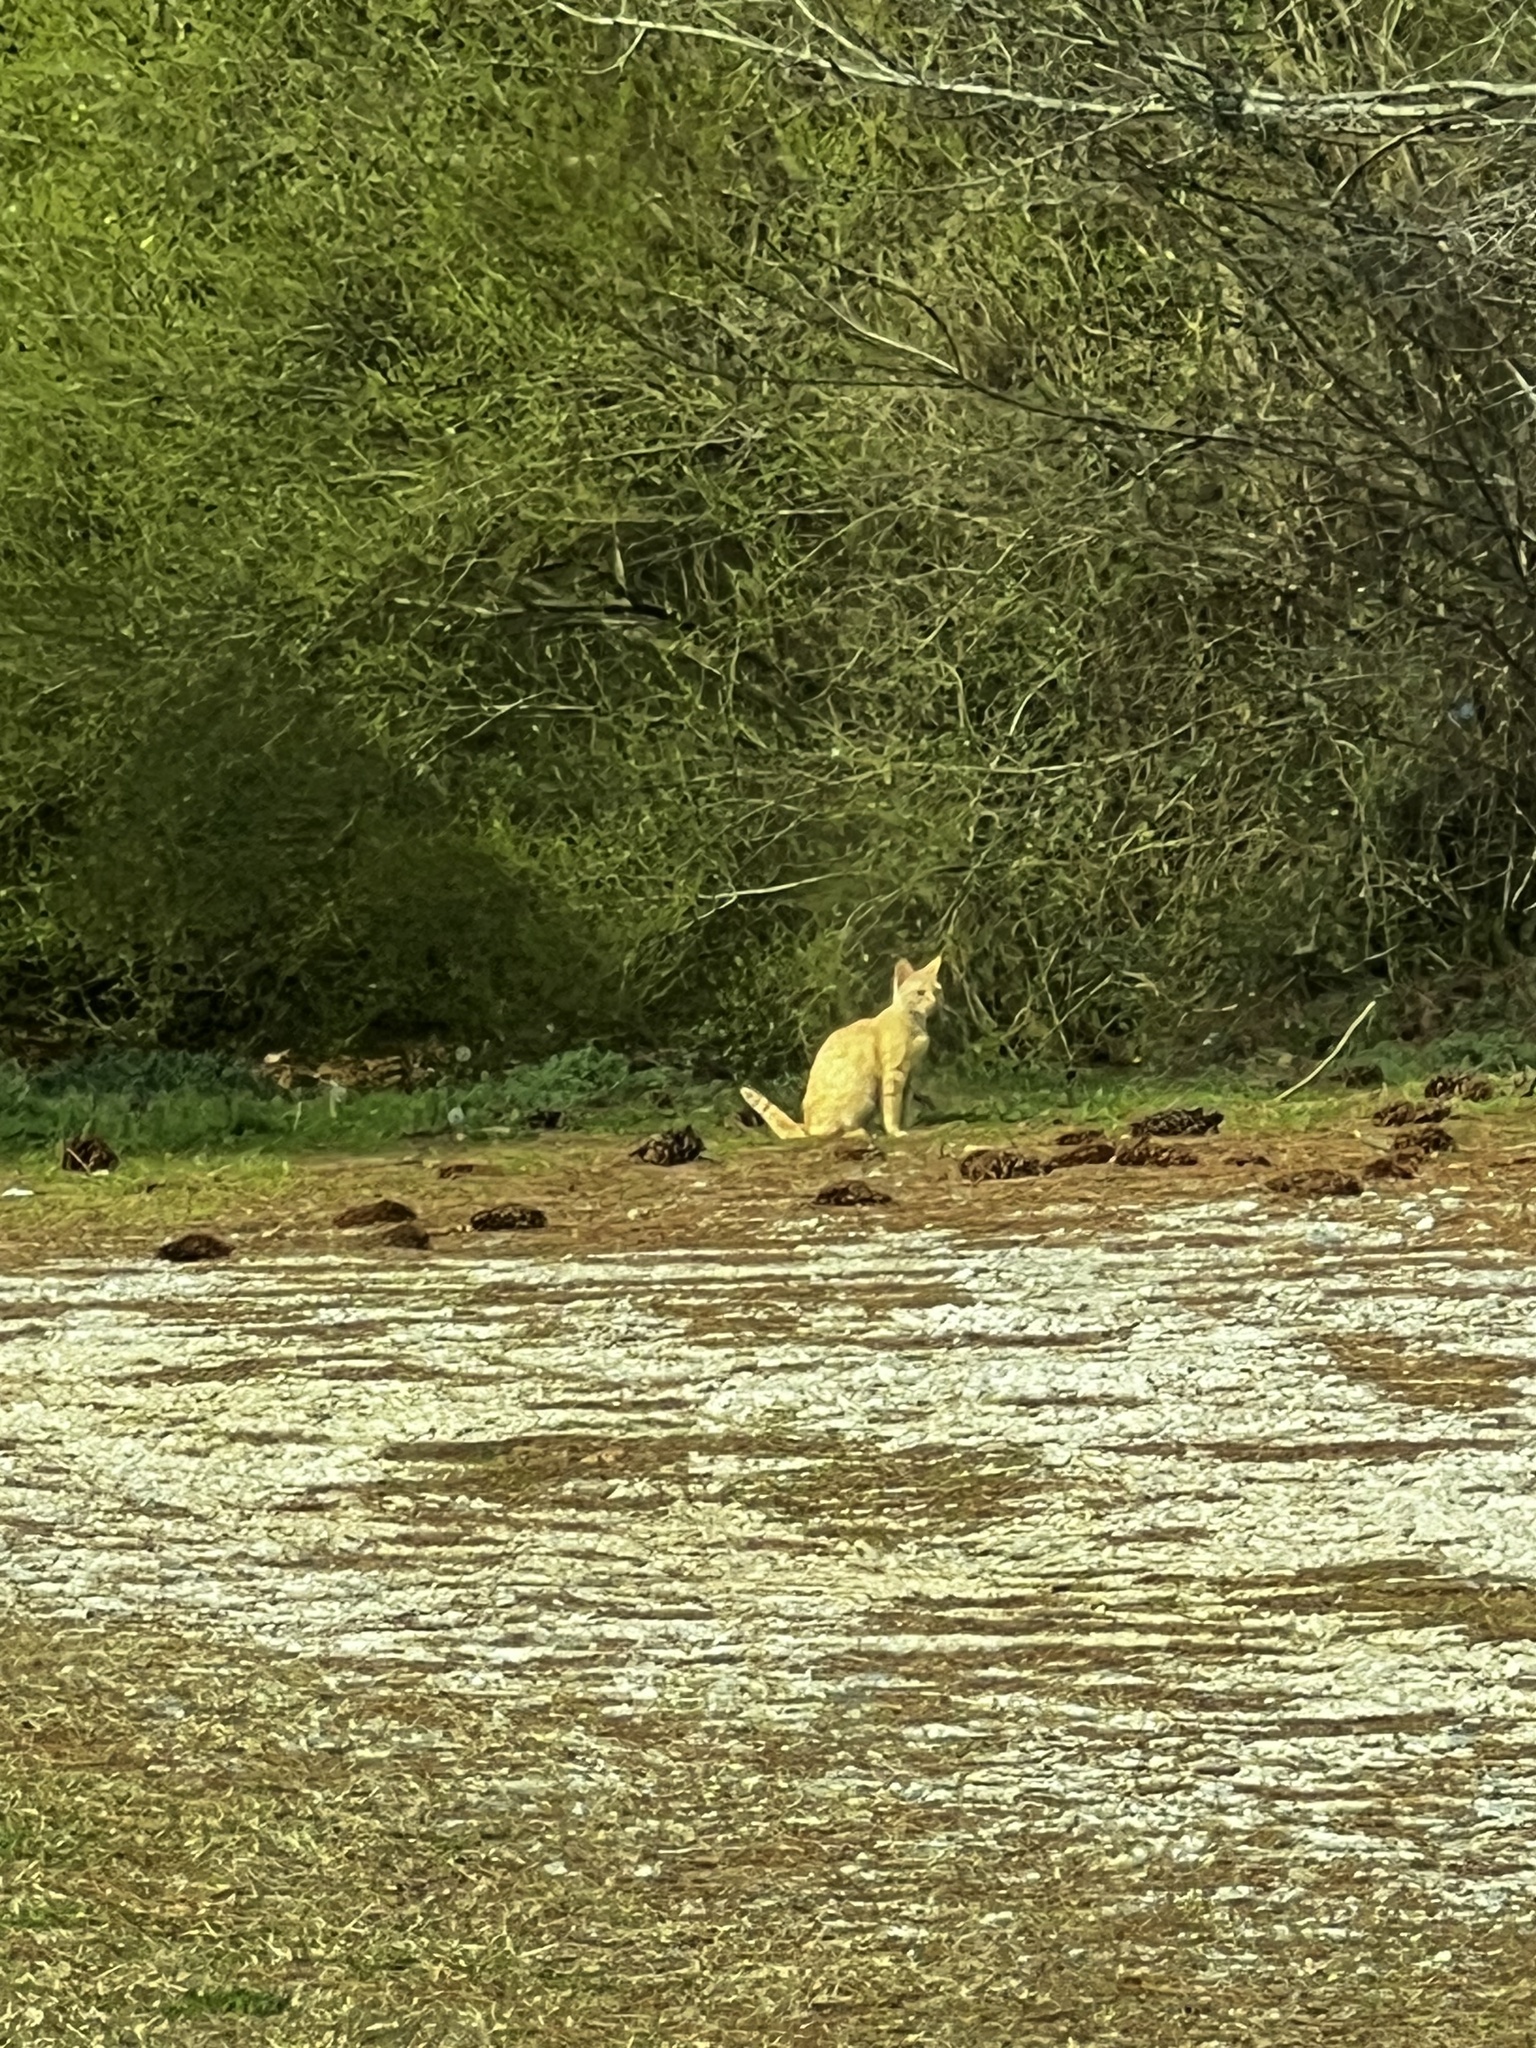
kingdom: Animalia
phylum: Chordata
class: Mammalia
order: Carnivora
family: Felidae
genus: Felis
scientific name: Felis catus
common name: Domestic cat
